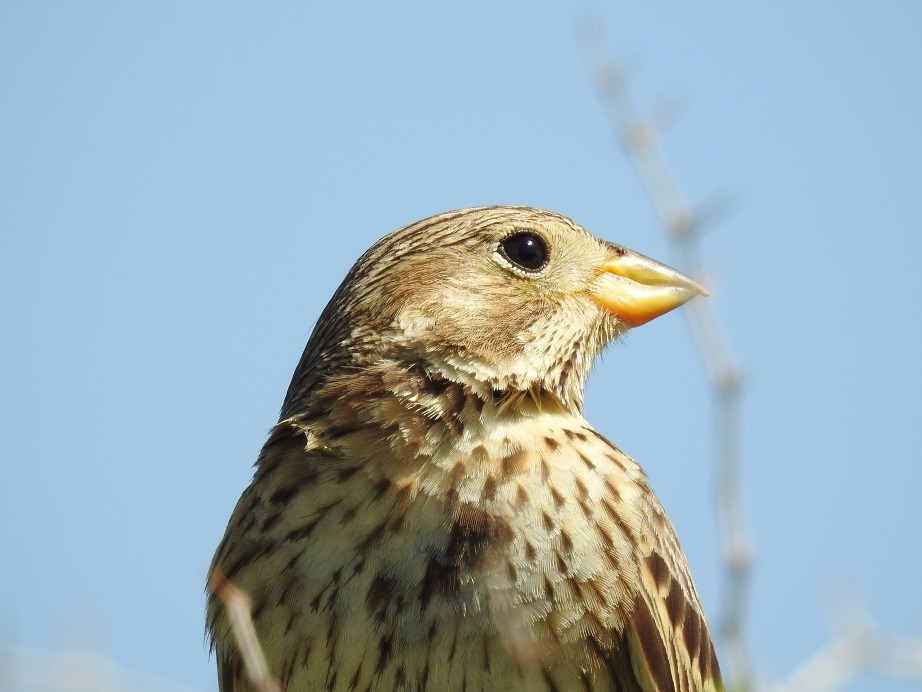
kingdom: Animalia
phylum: Chordata
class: Aves
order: Passeriformes
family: Emberizidae
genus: Emberiza
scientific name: Emberiza calandra
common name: Corn bunting
